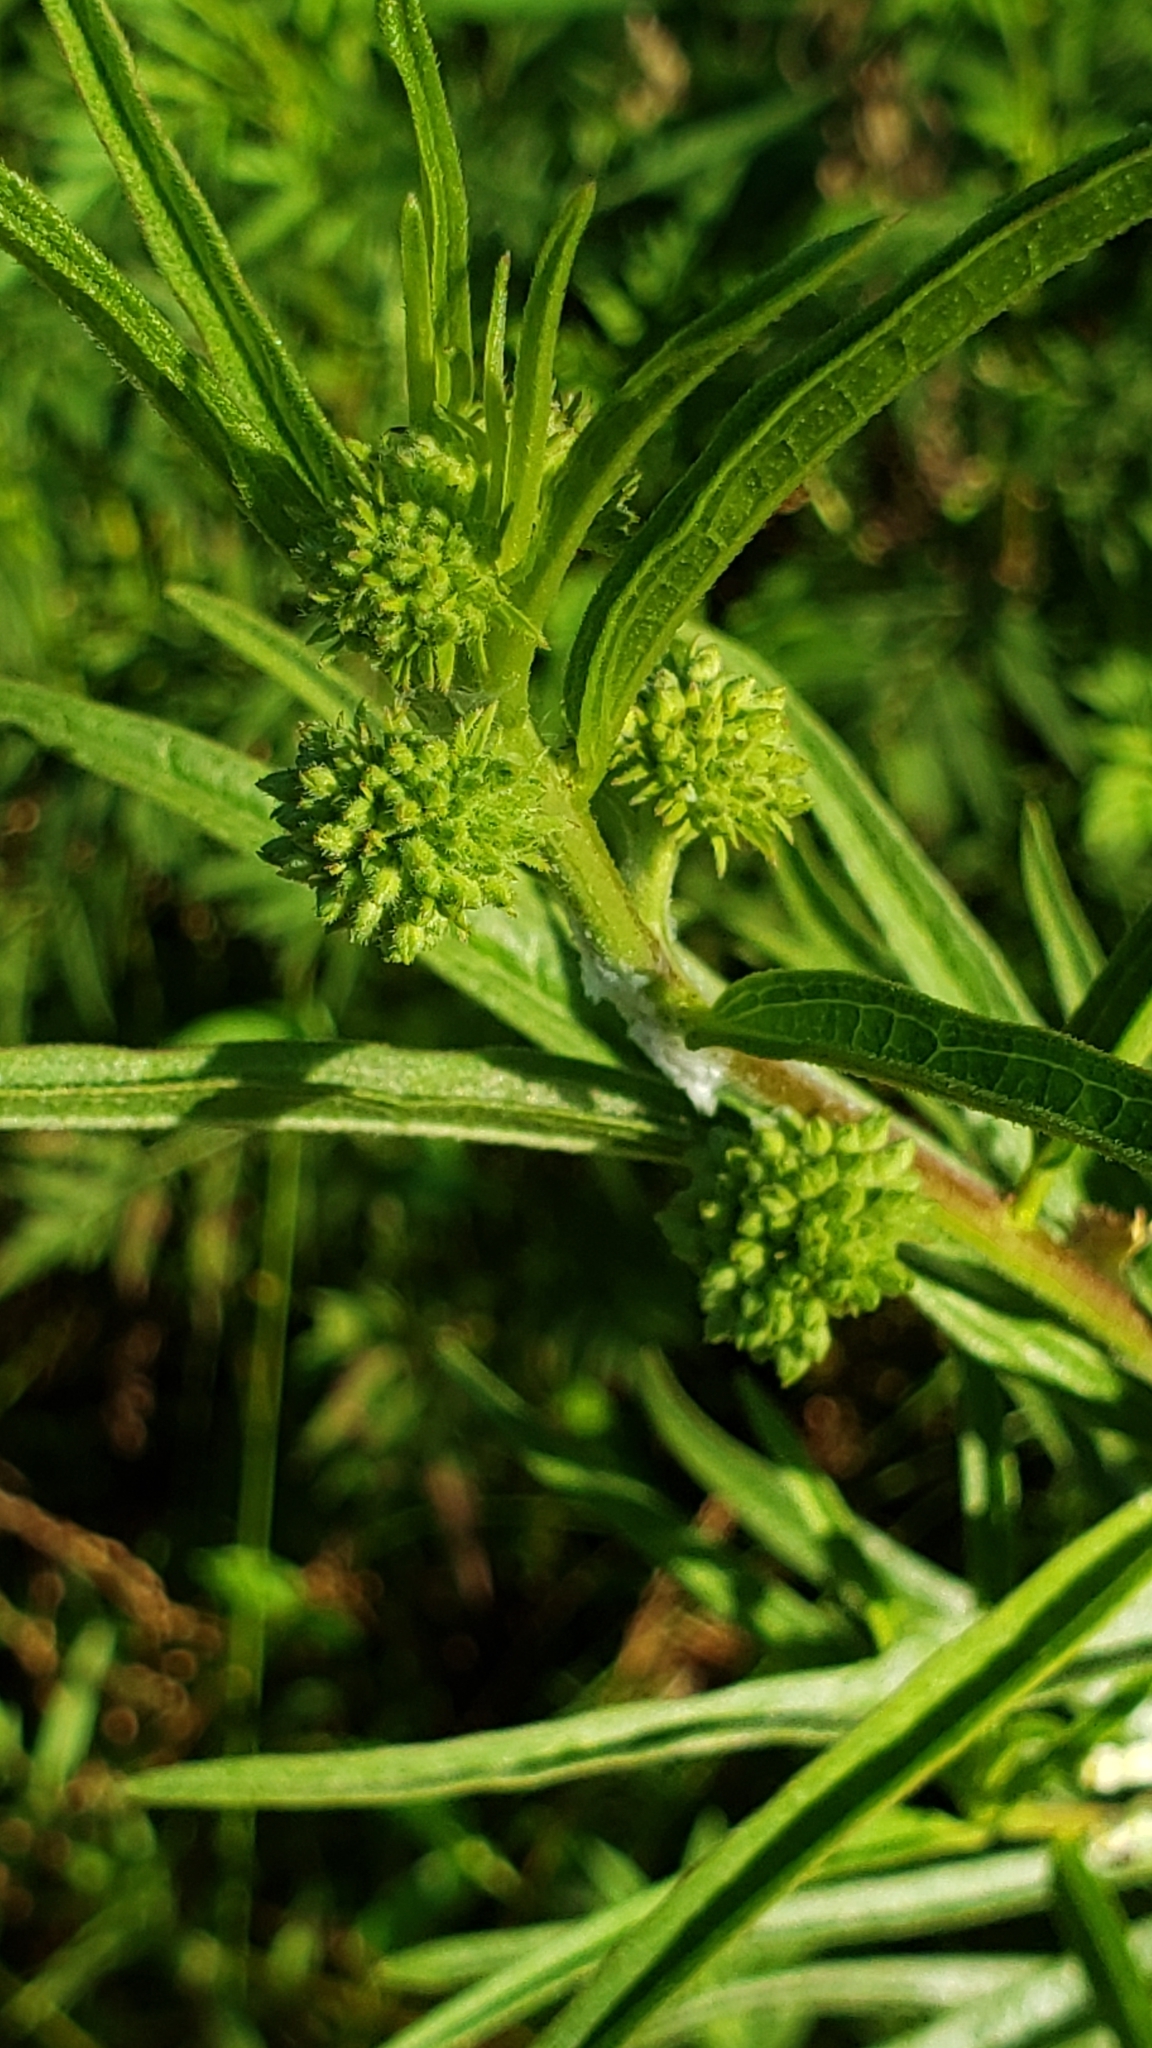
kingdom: Plantae
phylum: Tracheophyta
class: Magnoliopsida
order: Gentianales
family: Apocynaceae
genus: Asclepias
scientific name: Asclepias hirtella
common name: Prairie milkweed
